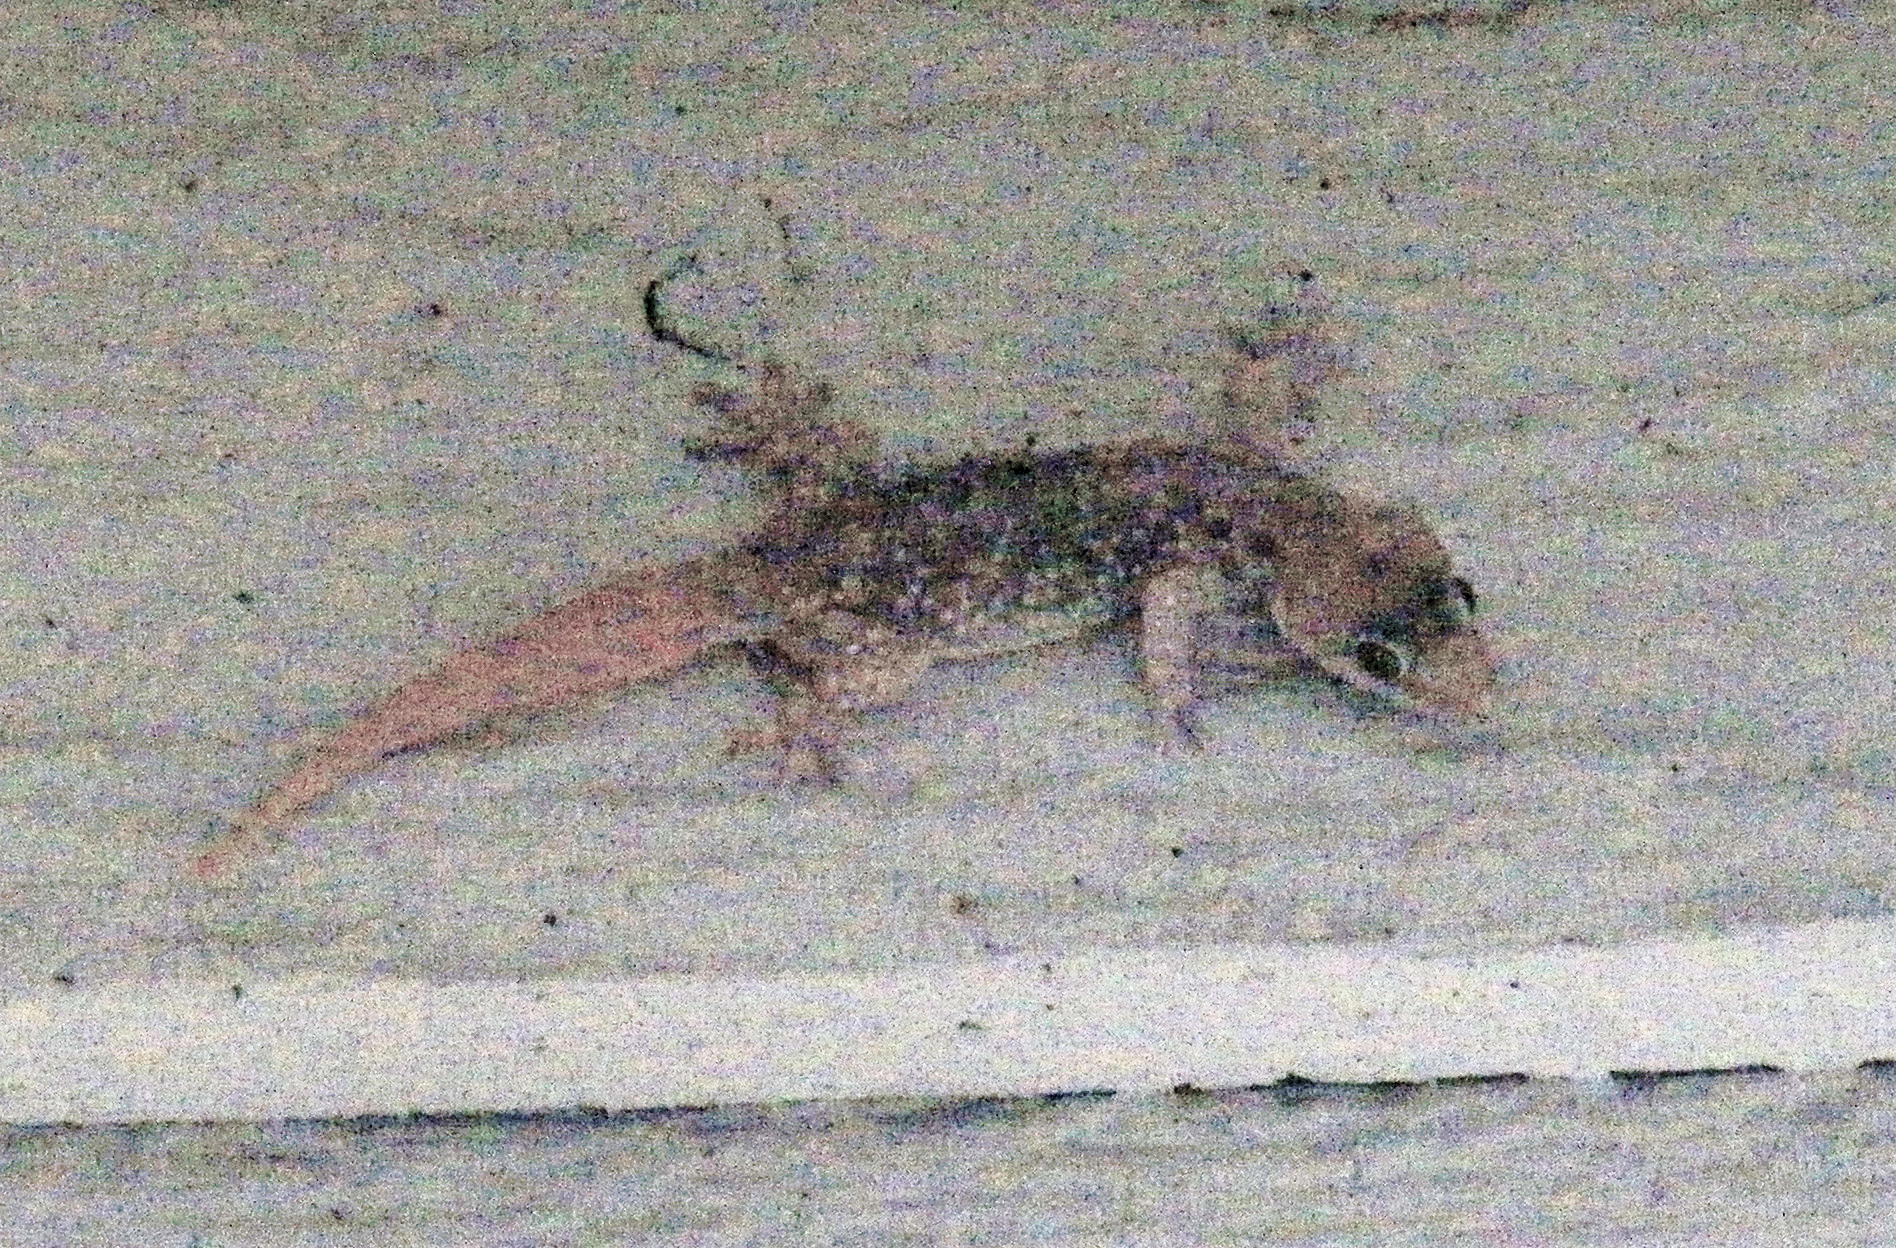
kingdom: Animalia
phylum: Chordata
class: Squamata
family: Gekkonidae
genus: Hemidactylus
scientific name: Hemidactylus turcicus
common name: Turkish gecko
